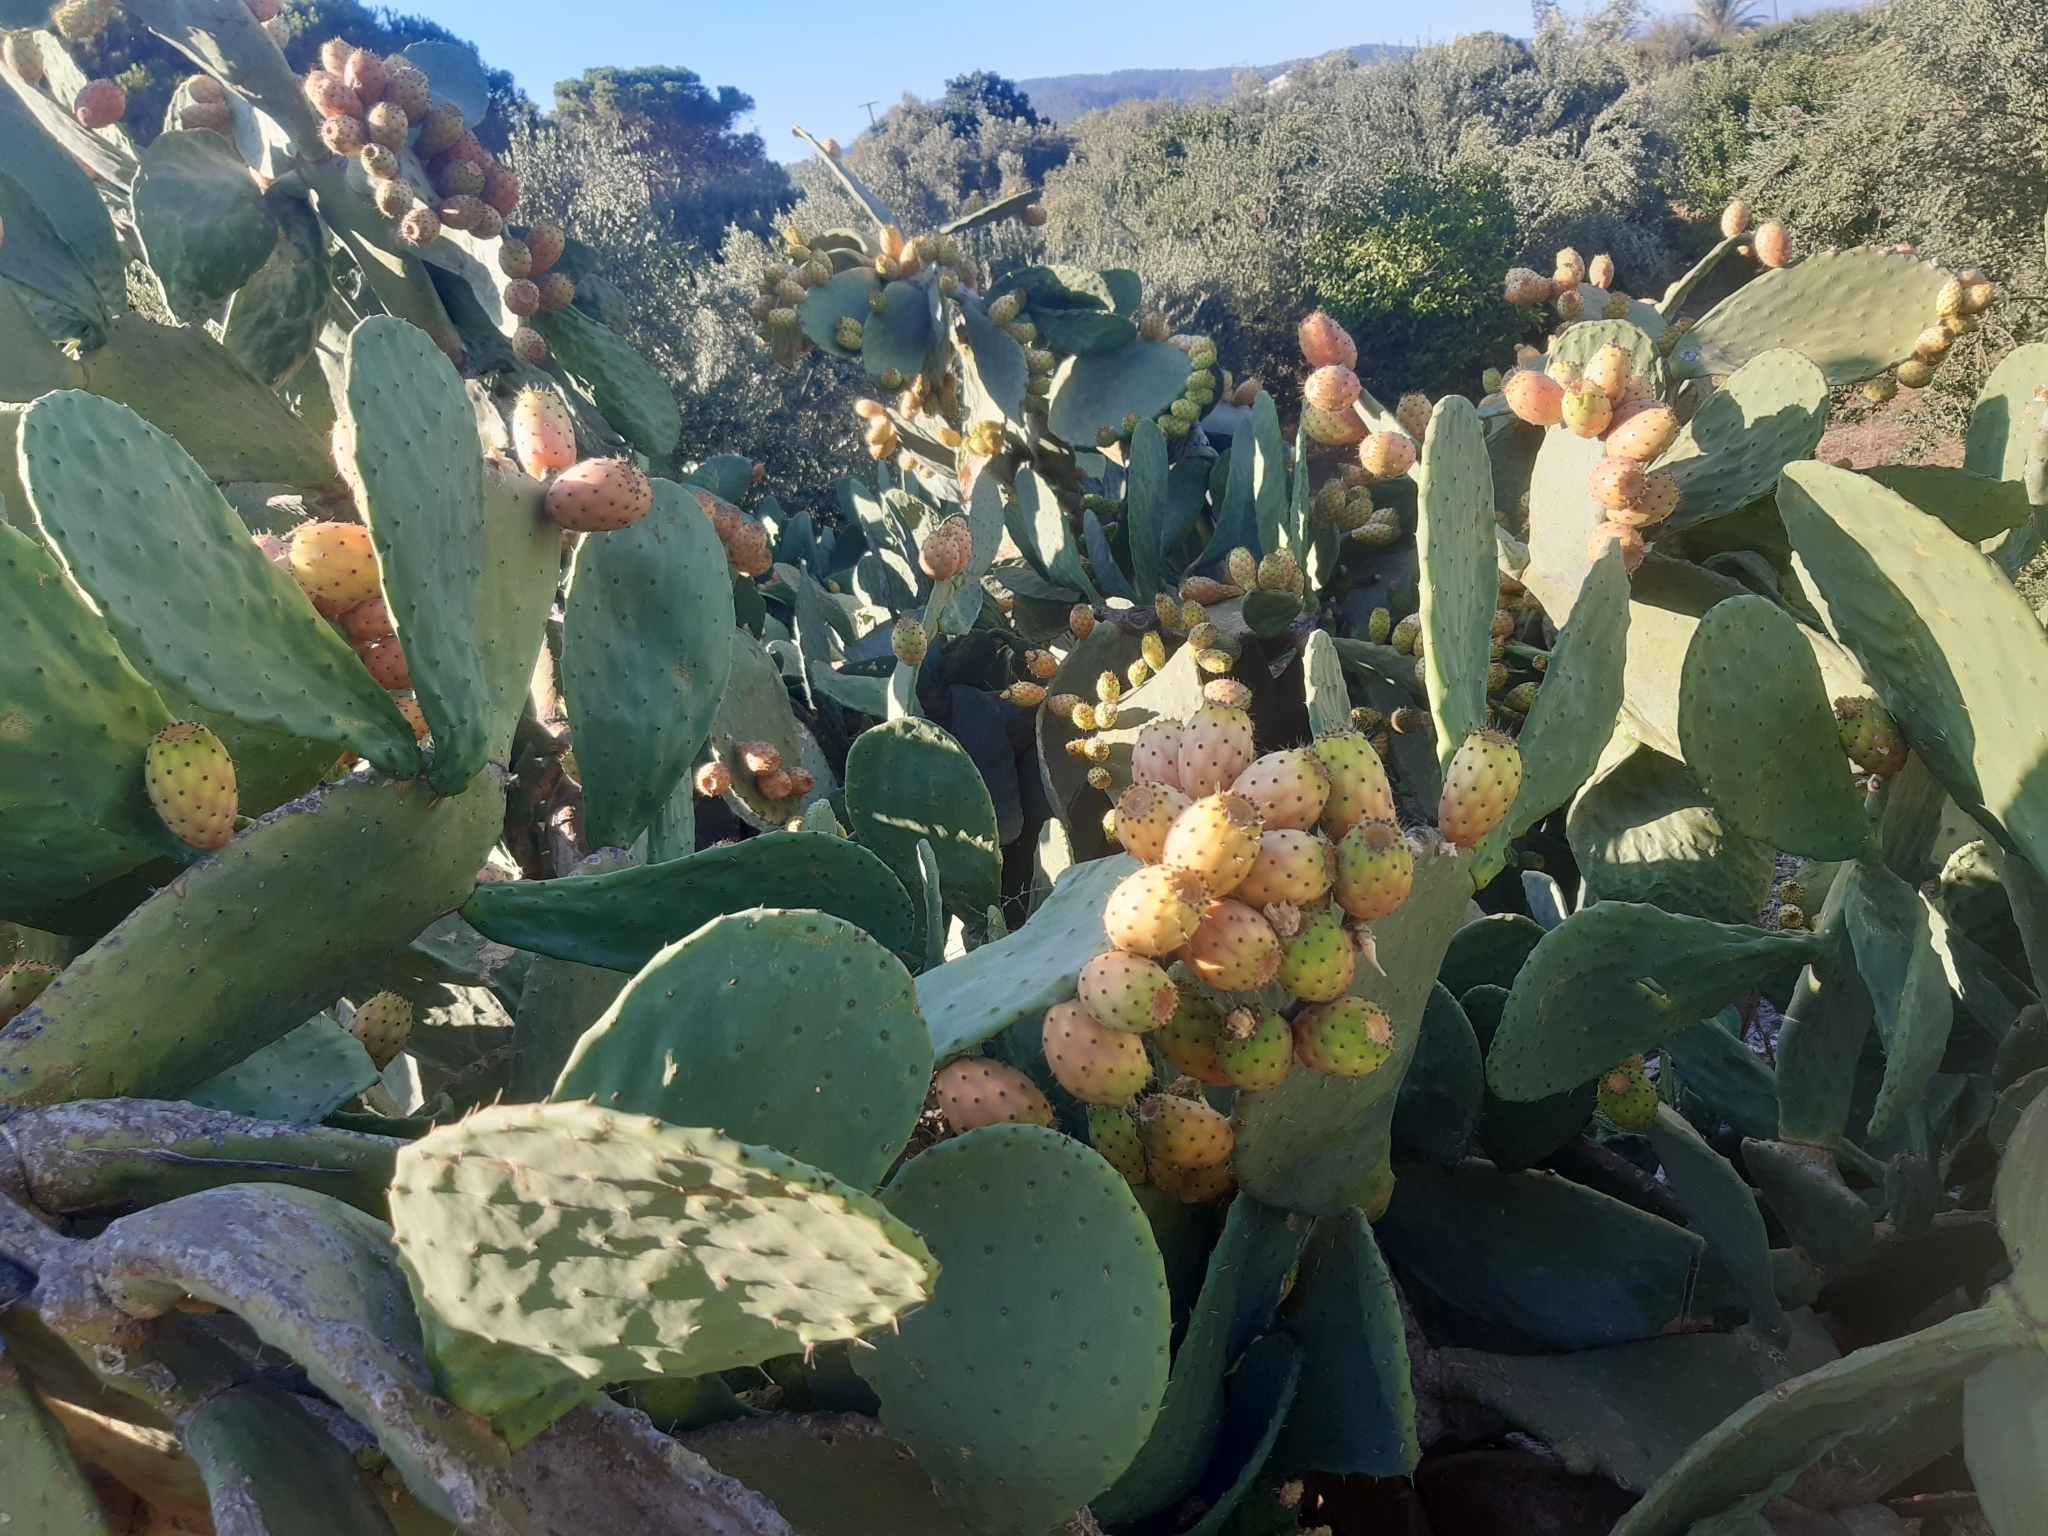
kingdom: Plantae
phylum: Tracheophyta
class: Magnoliopsida
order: Caryophyllales
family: Cactaceae
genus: Opuntia
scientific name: Opuntia ficus-indica
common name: Barbary fig
